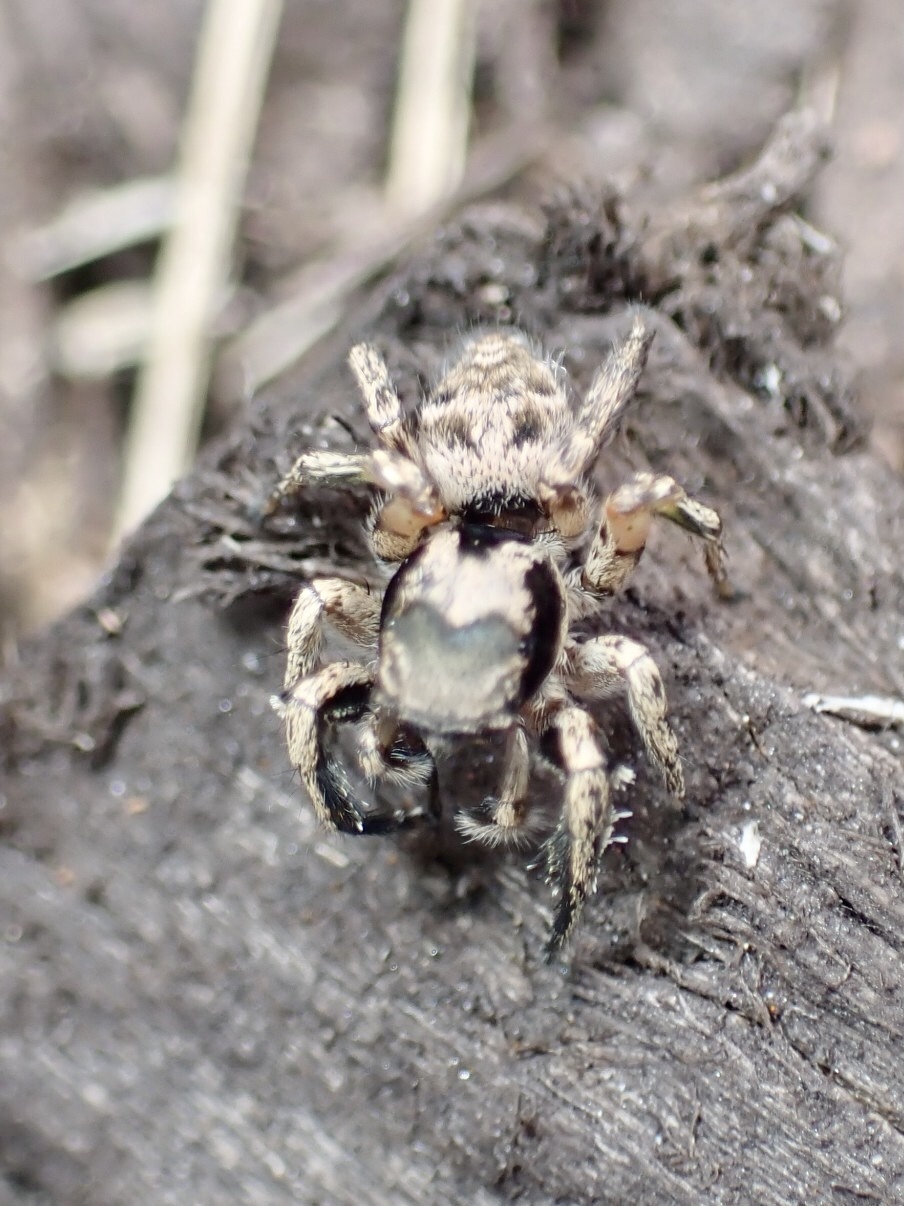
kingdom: Animalia
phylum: Arthropoda
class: Arachnida
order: Araneae
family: Salticidae
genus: Habronattus
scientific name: Habronattus coecatus
